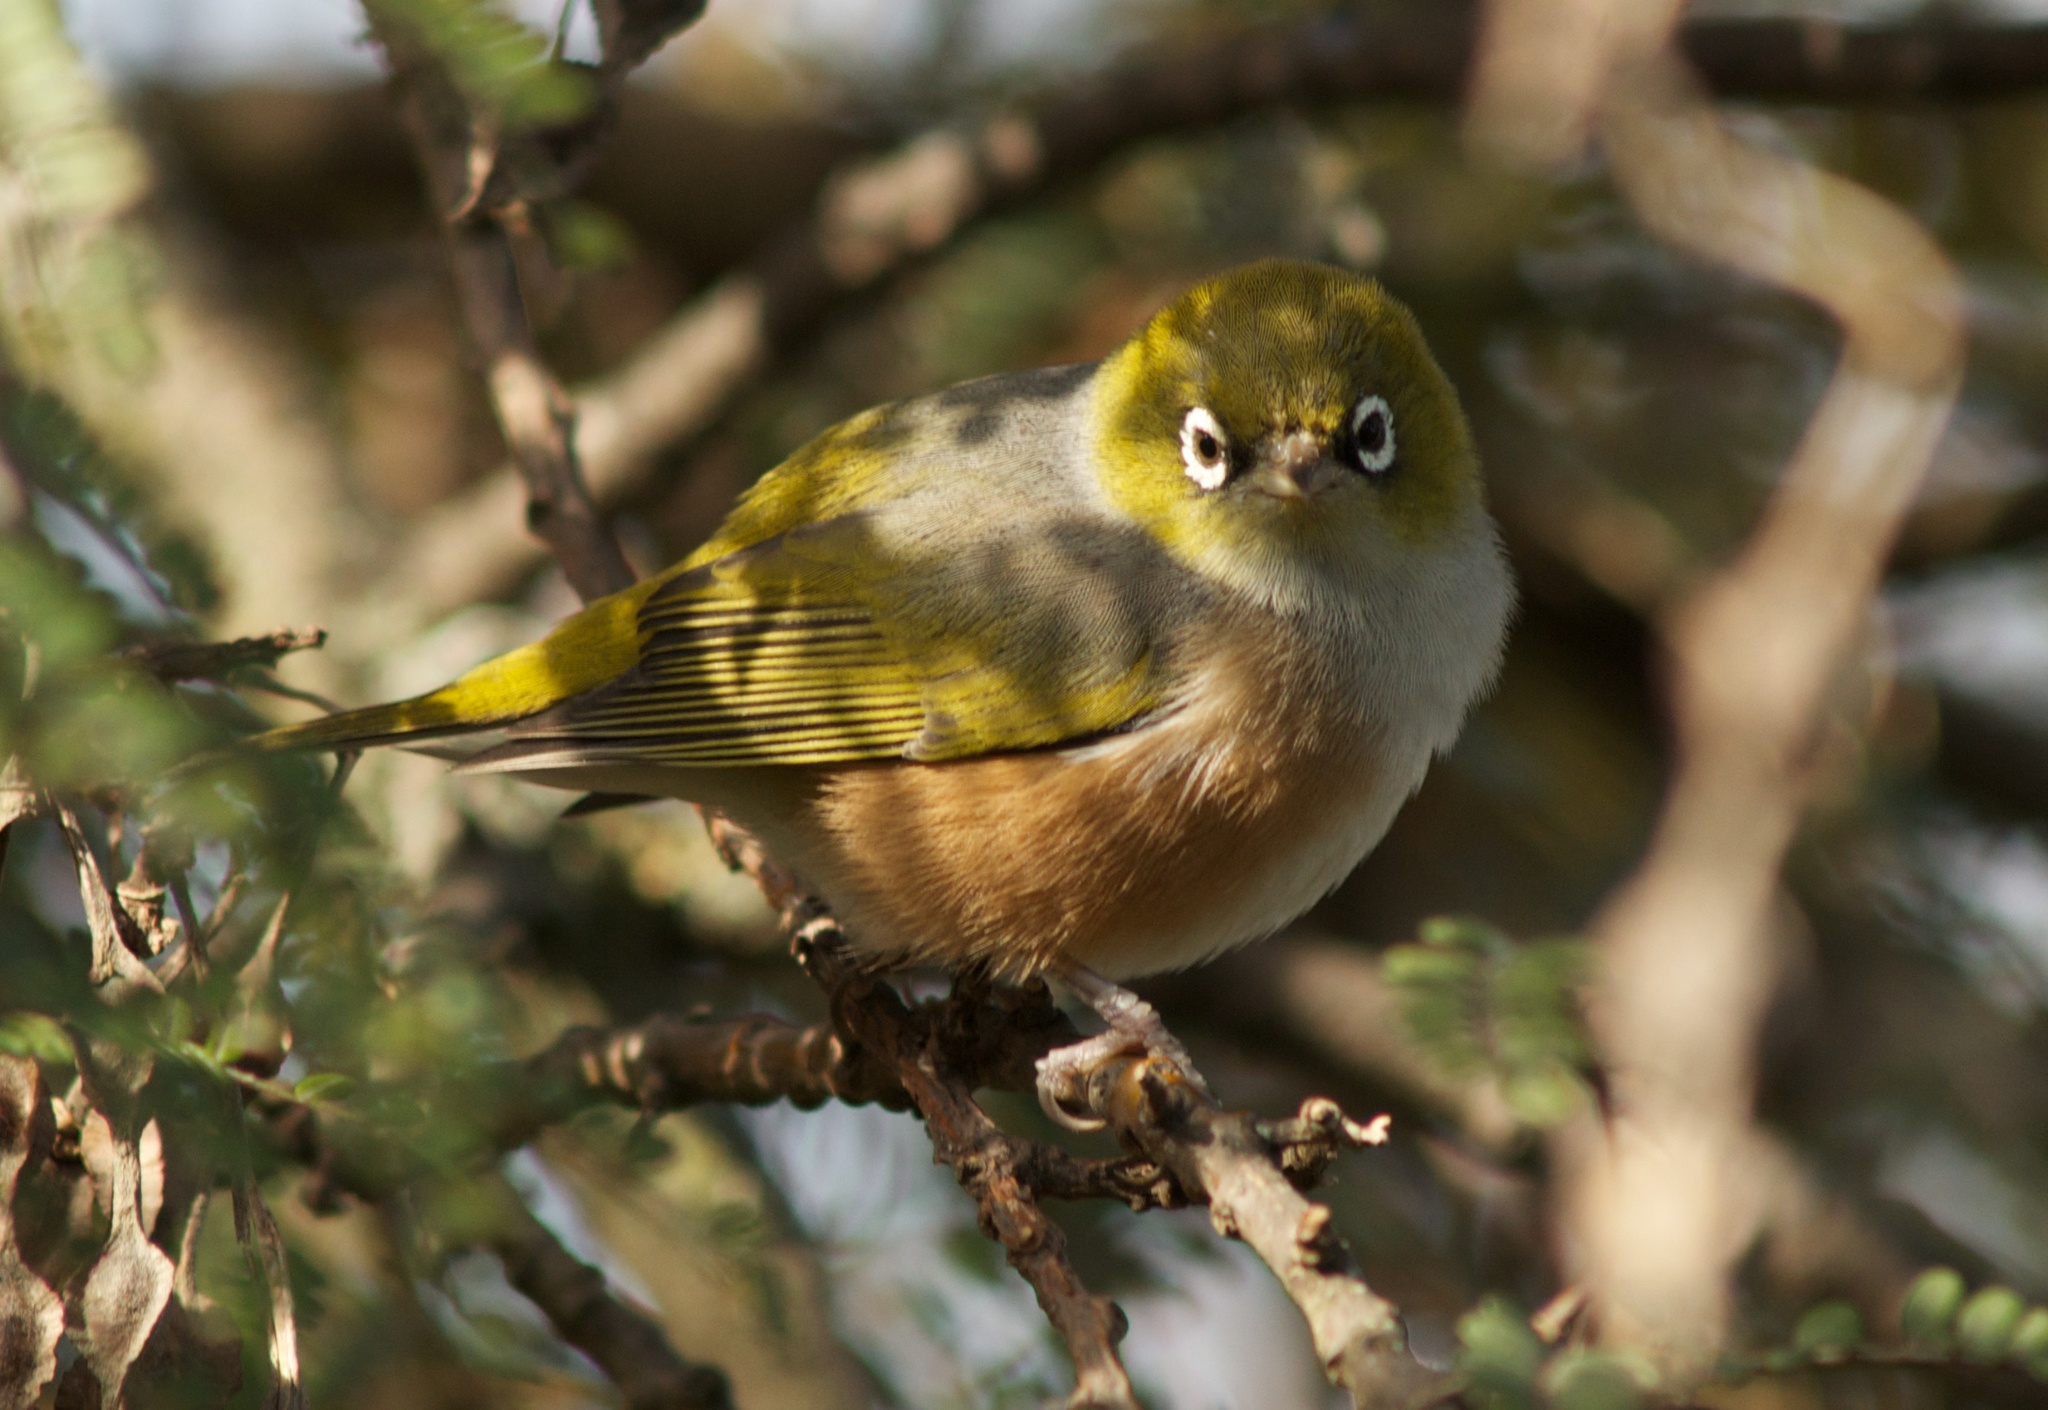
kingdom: Animalia
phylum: Chordata
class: Aves
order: Passeriformes
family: Zosteropidae
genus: Zosterops
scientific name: Zosterops lateralis
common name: Silvereye
